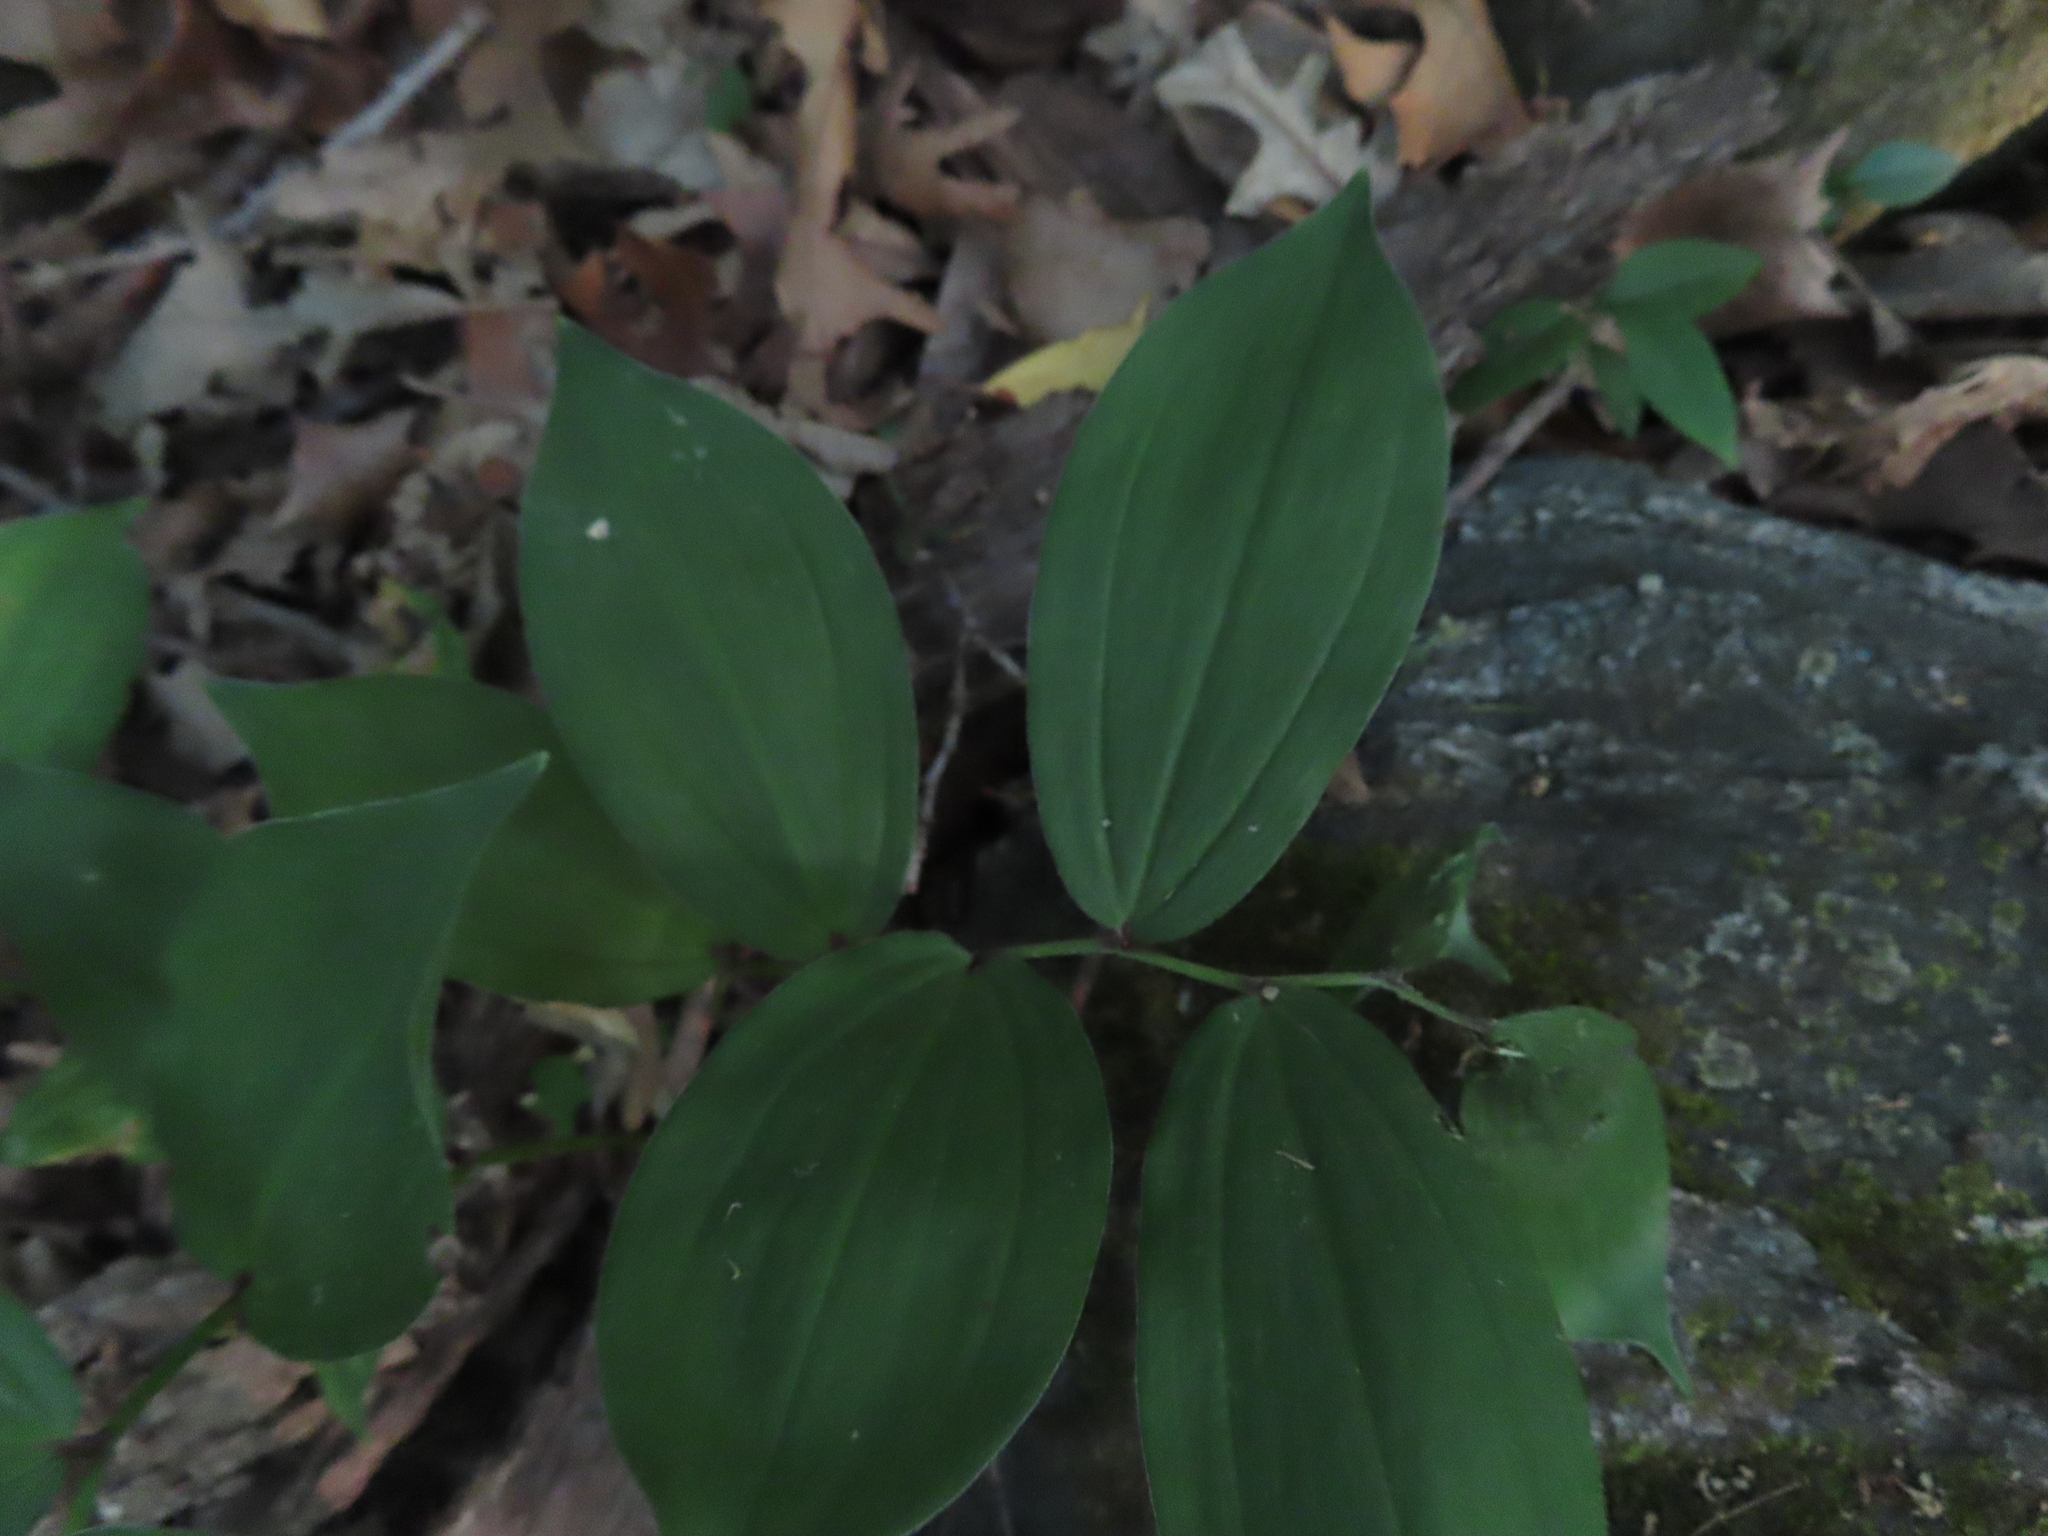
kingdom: Plantae
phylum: Tracheophyta
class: Liliopsida
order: Asparagales
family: Asparagaceae
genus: Maianthemum
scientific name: Maianthemum racemosum
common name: False spikenard
